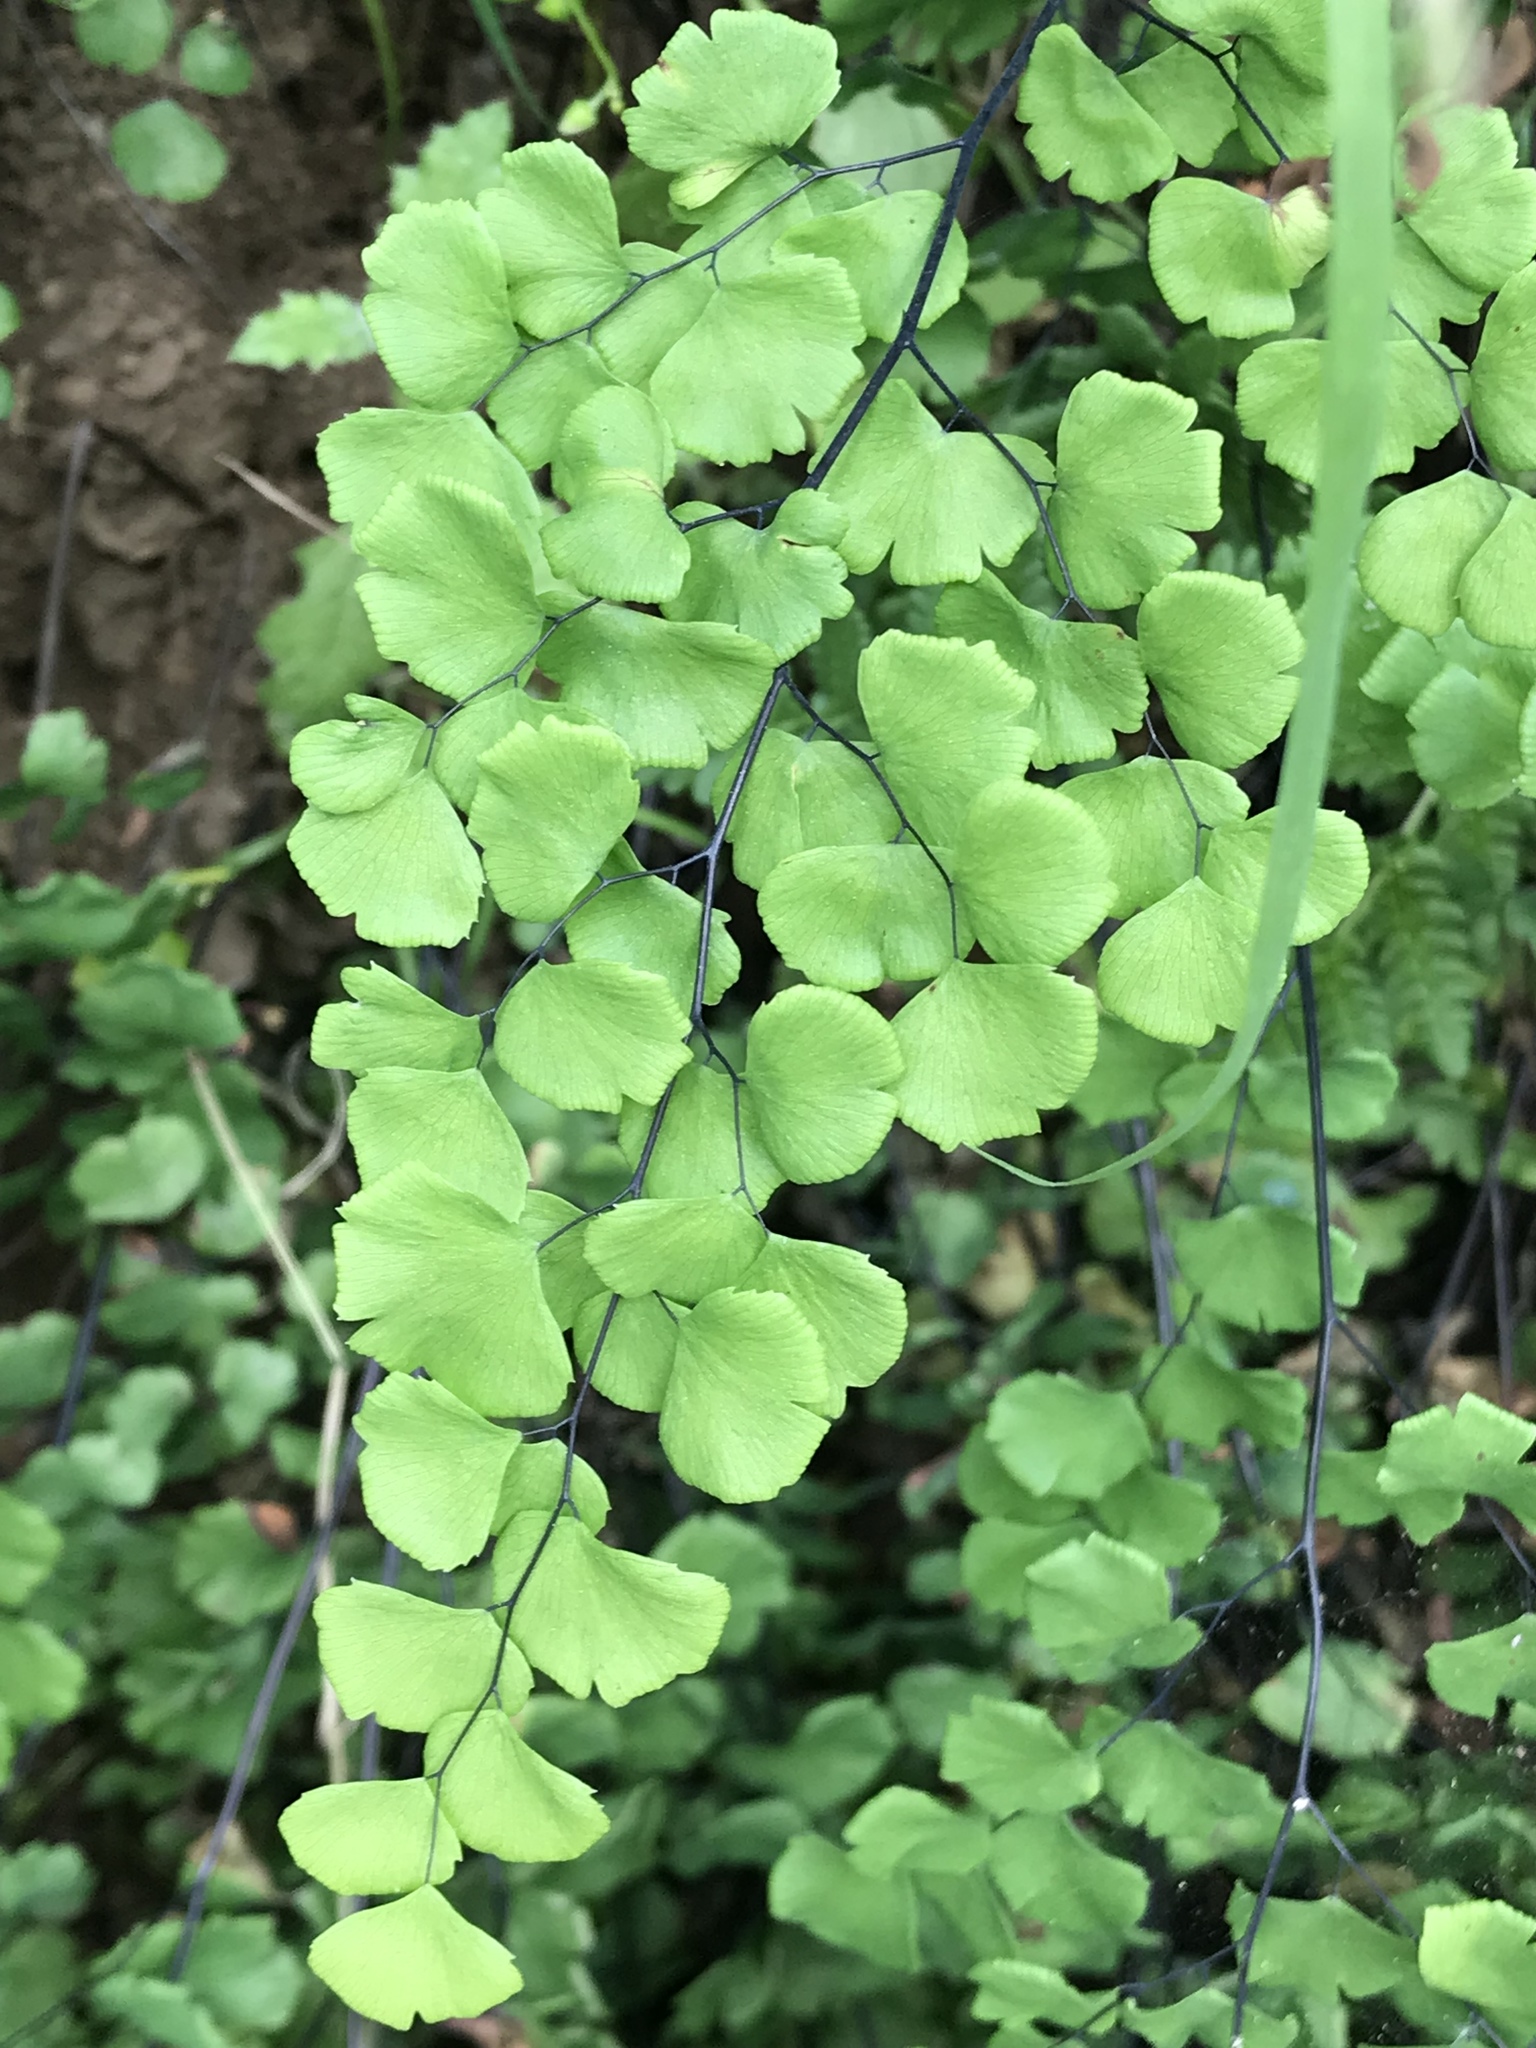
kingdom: Plantae
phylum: Tracheophyta
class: Polypodiopsida
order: Polypodiales
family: Pteridaceae
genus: Adiantum
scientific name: Adiantum jordanii
